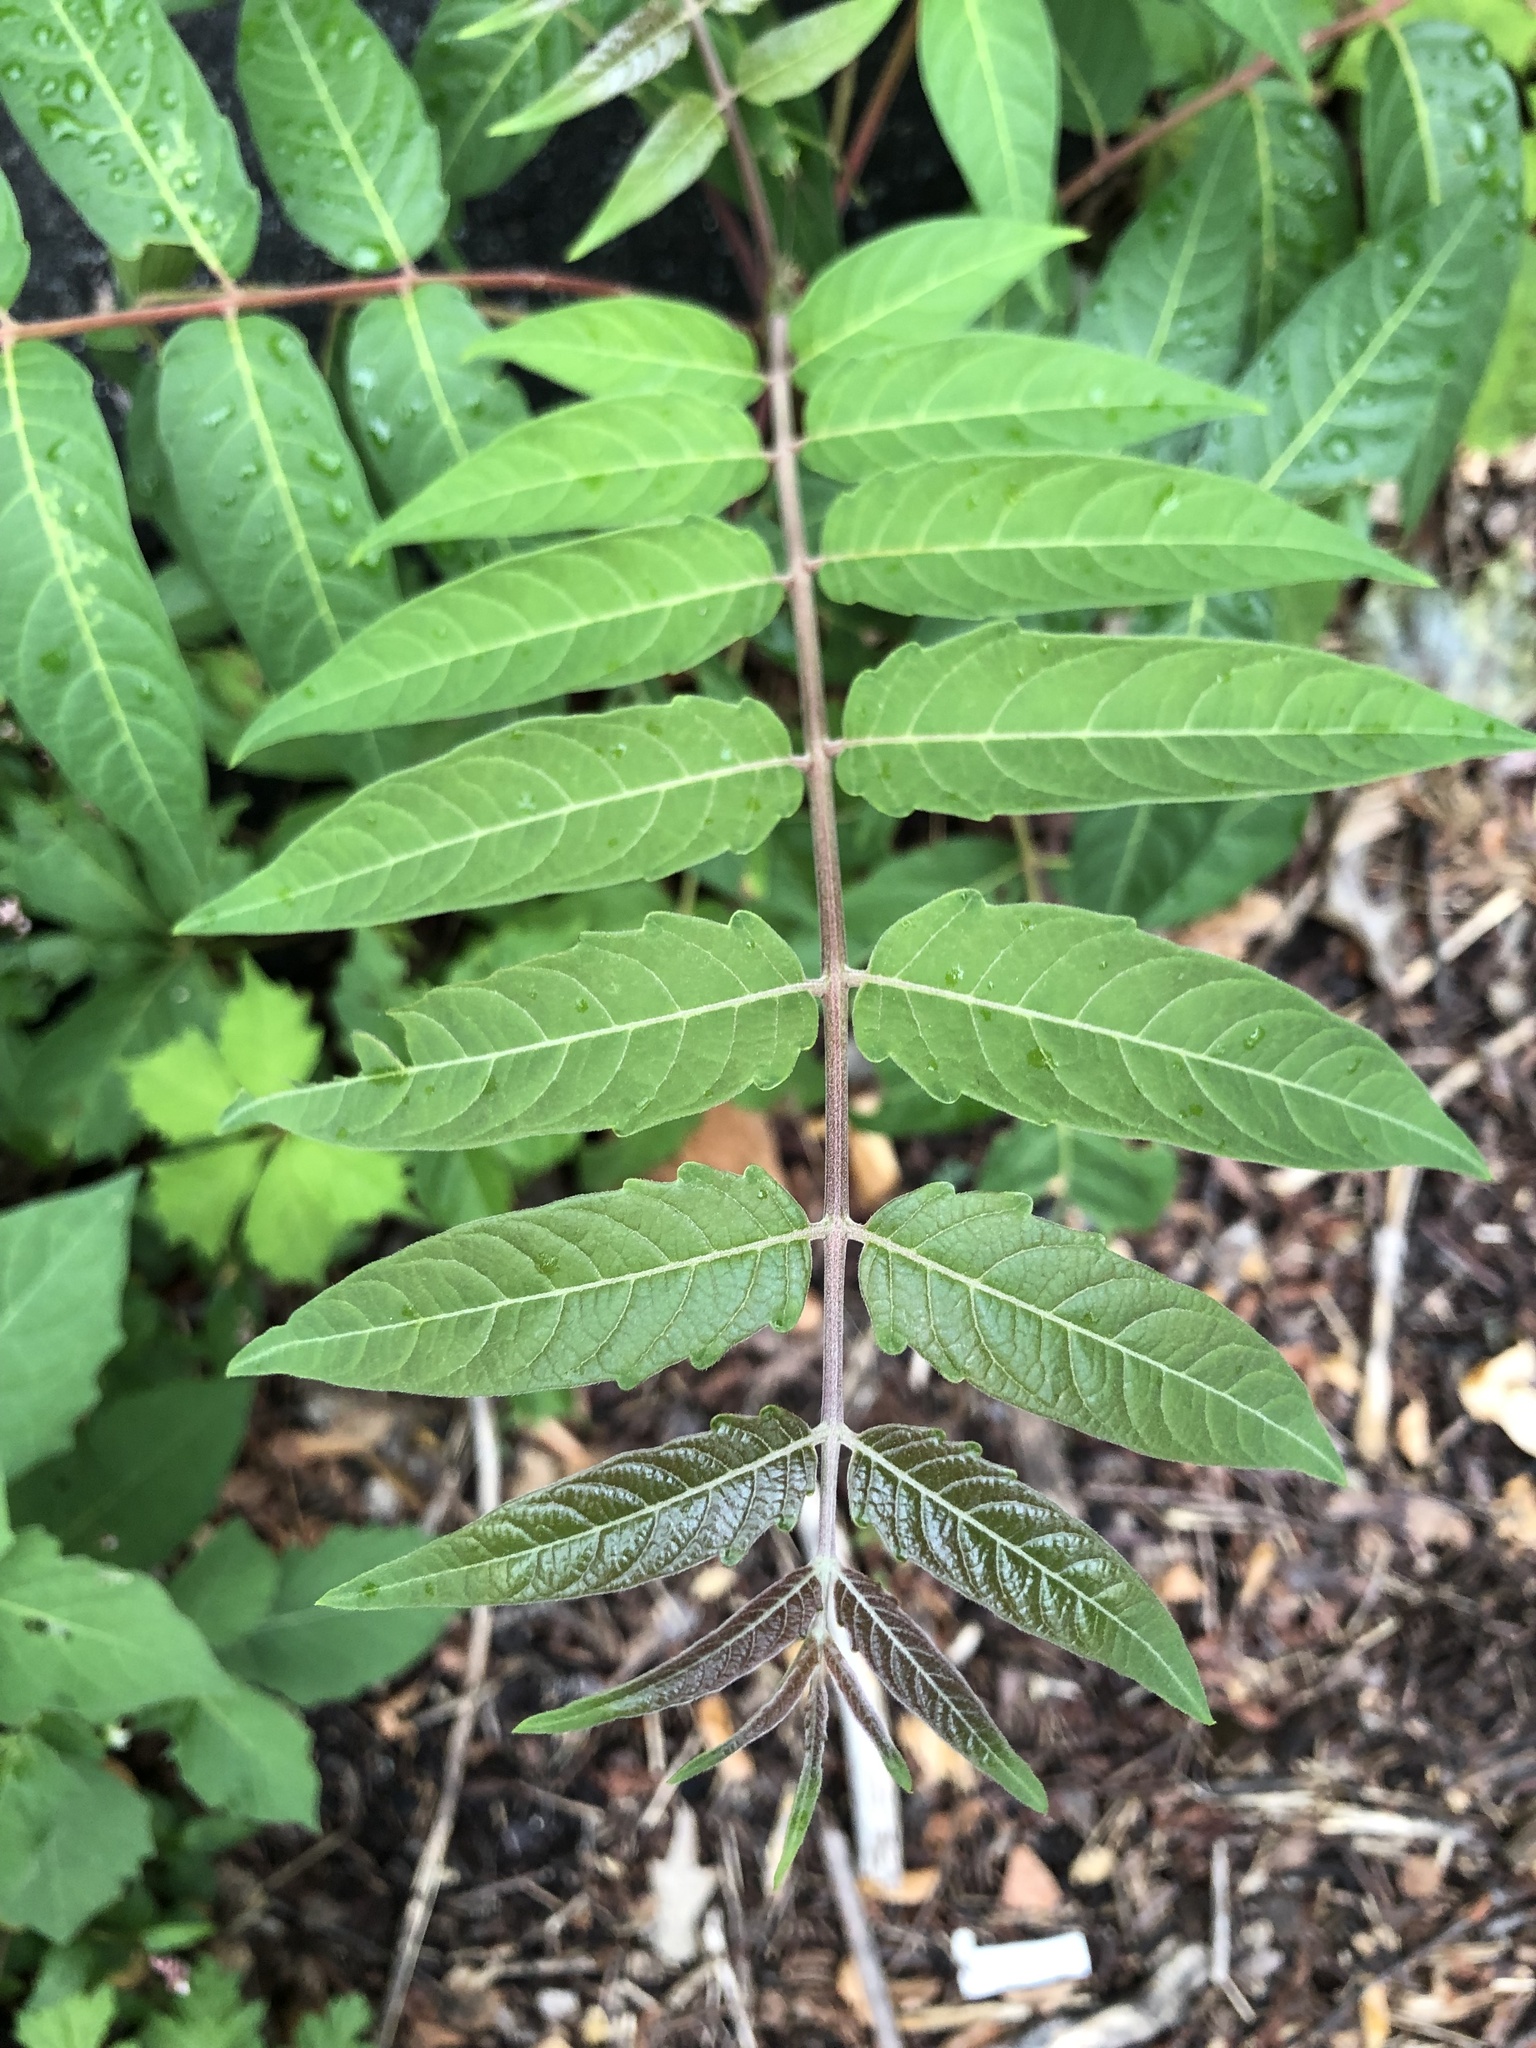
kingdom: Plantae
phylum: Tracheophyta
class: Magnoliopsida
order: Sapindales
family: Simaroubaceae
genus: Ailanthus
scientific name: Ailanthus altissima
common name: Tree-of-heaven
